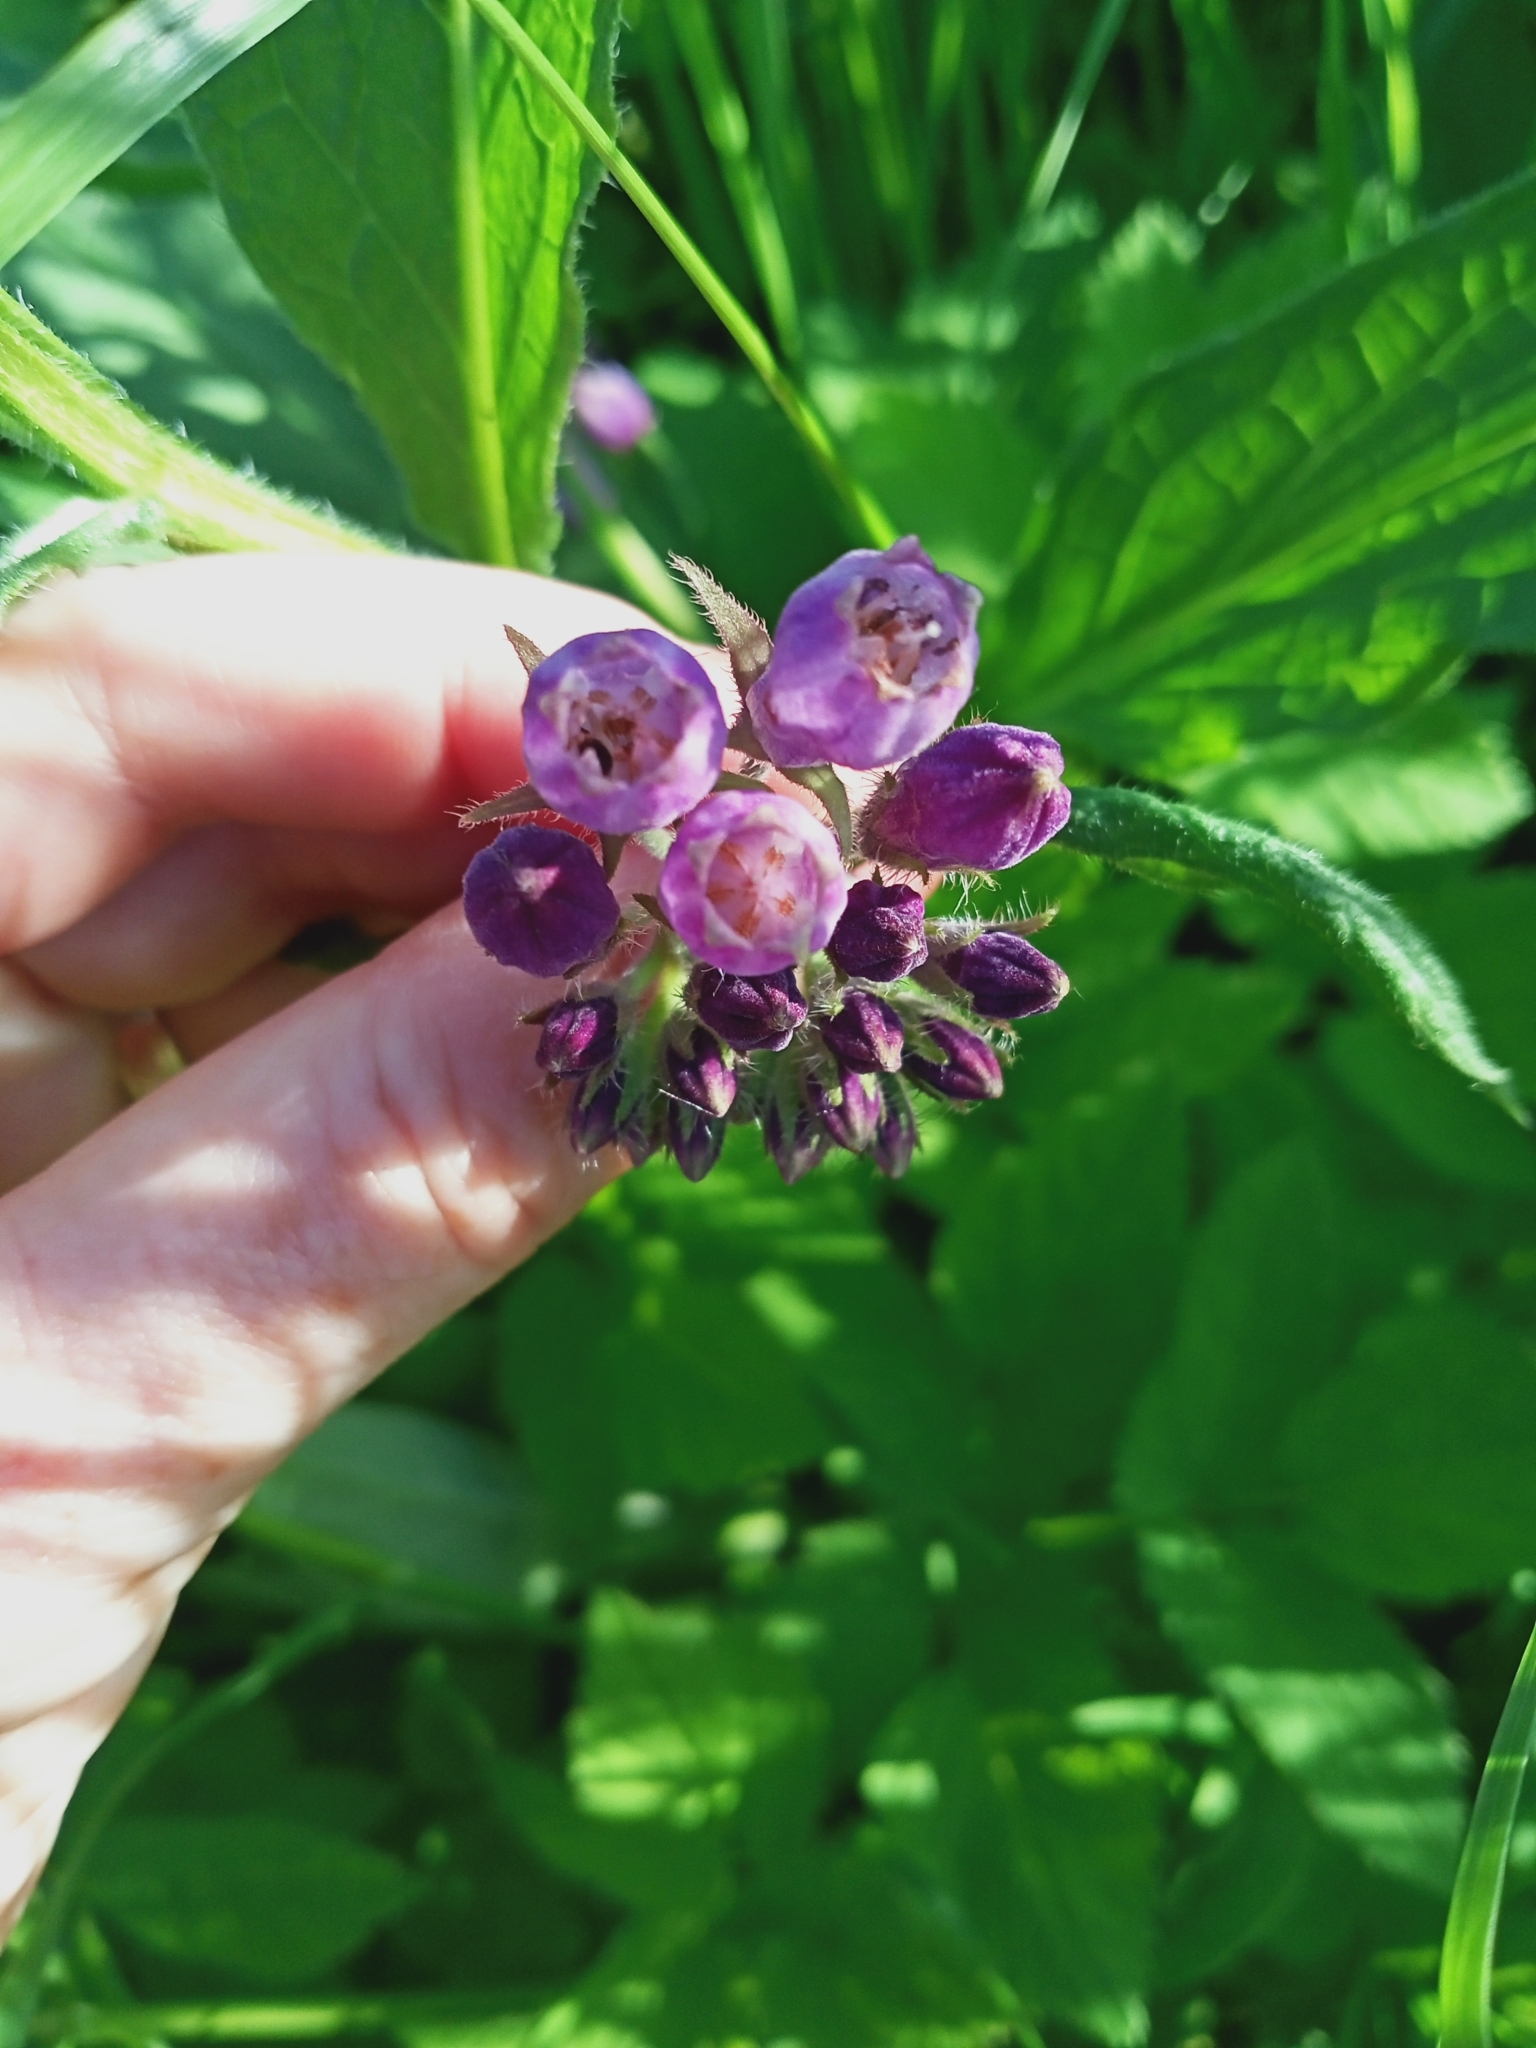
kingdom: Plantae
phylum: Tracheophyta
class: Magnoliopsida
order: Boraginales
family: Boraginaceae
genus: Symphytum
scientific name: Symphytum officinale
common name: Common comfrey
